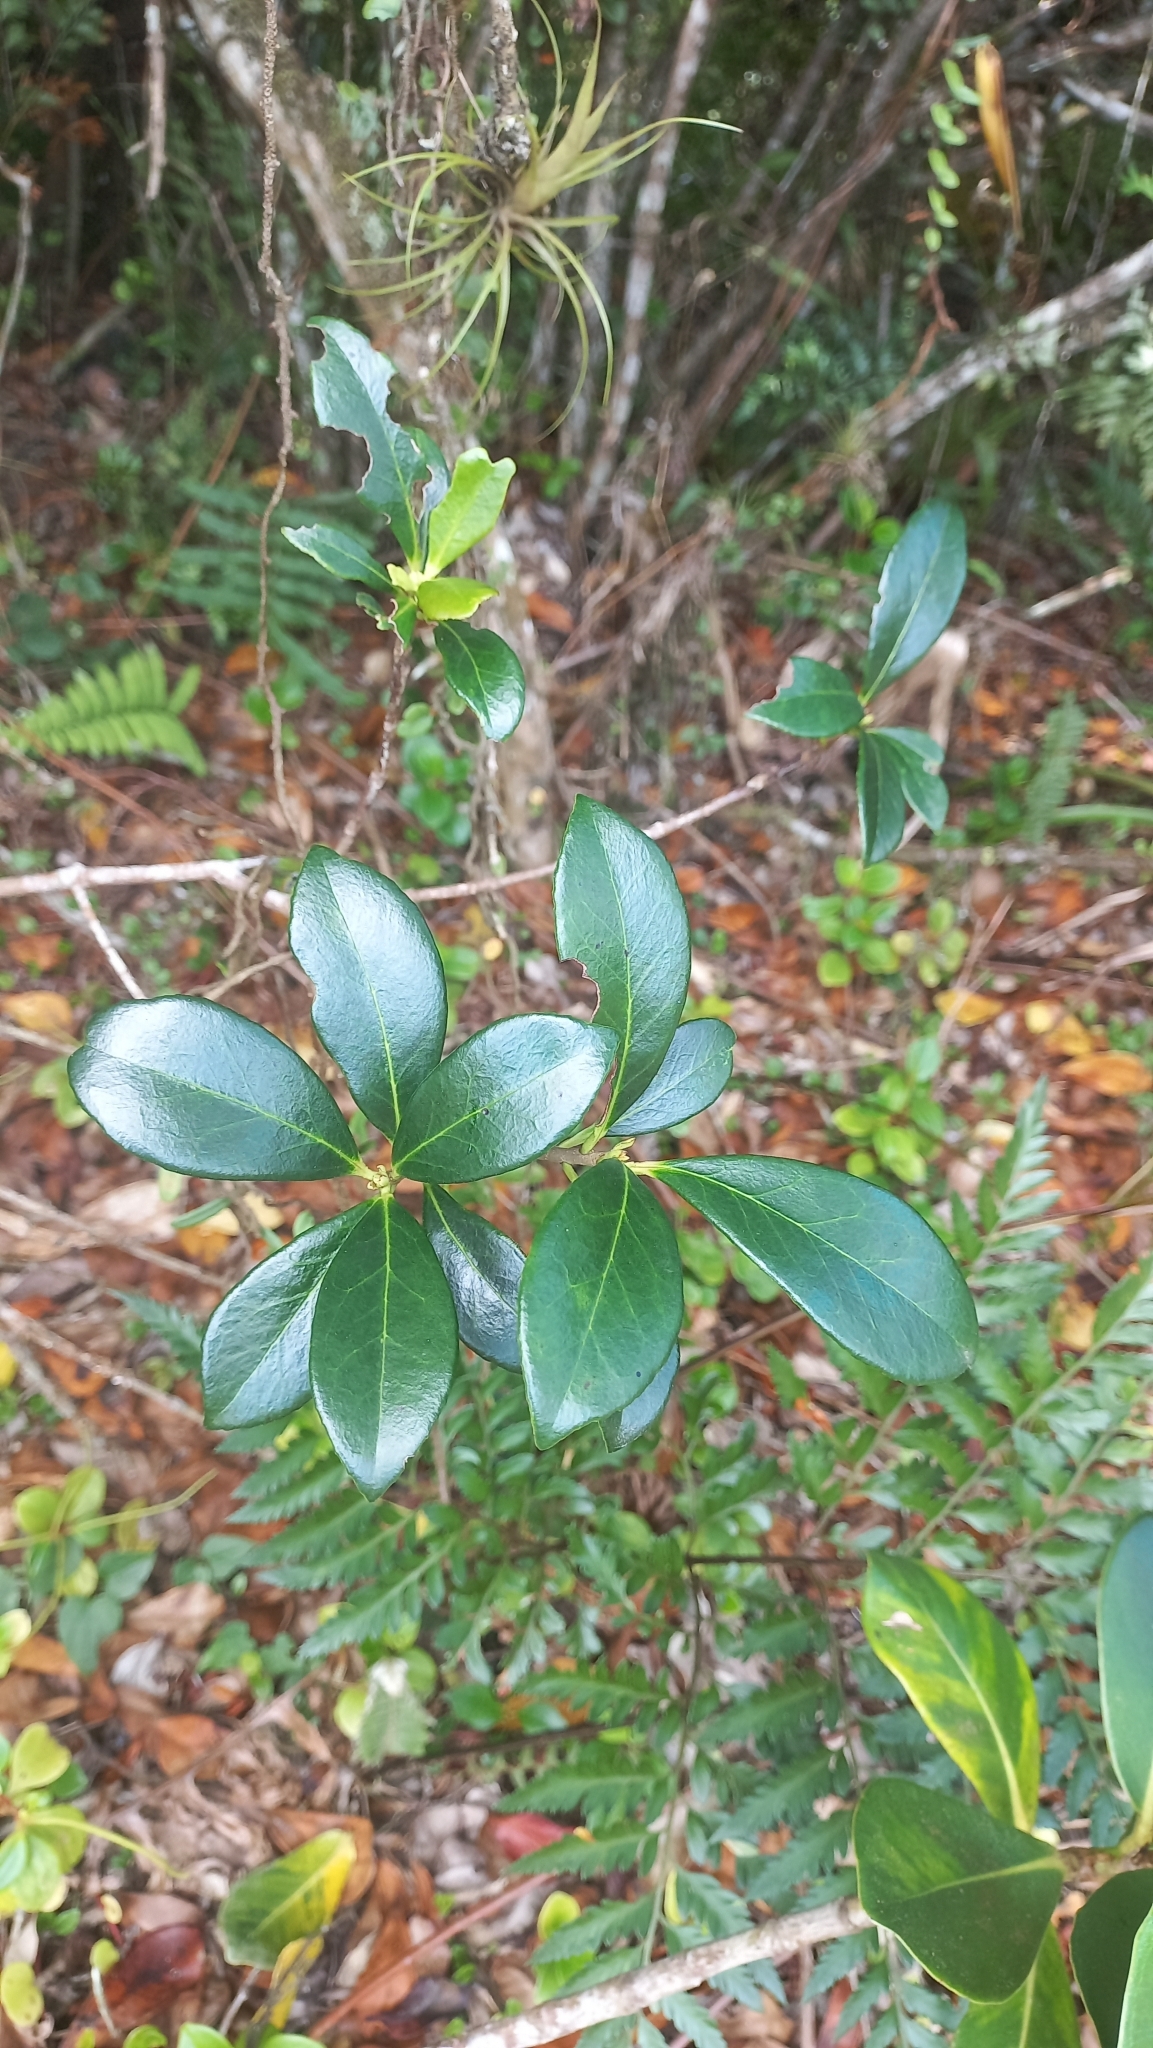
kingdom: Plantae
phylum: Tracheophyta
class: Magnoliopsida
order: Ericales
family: Pentaphylacaceae
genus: Ternstroemia
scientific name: Ternstroemia brasiliensis
